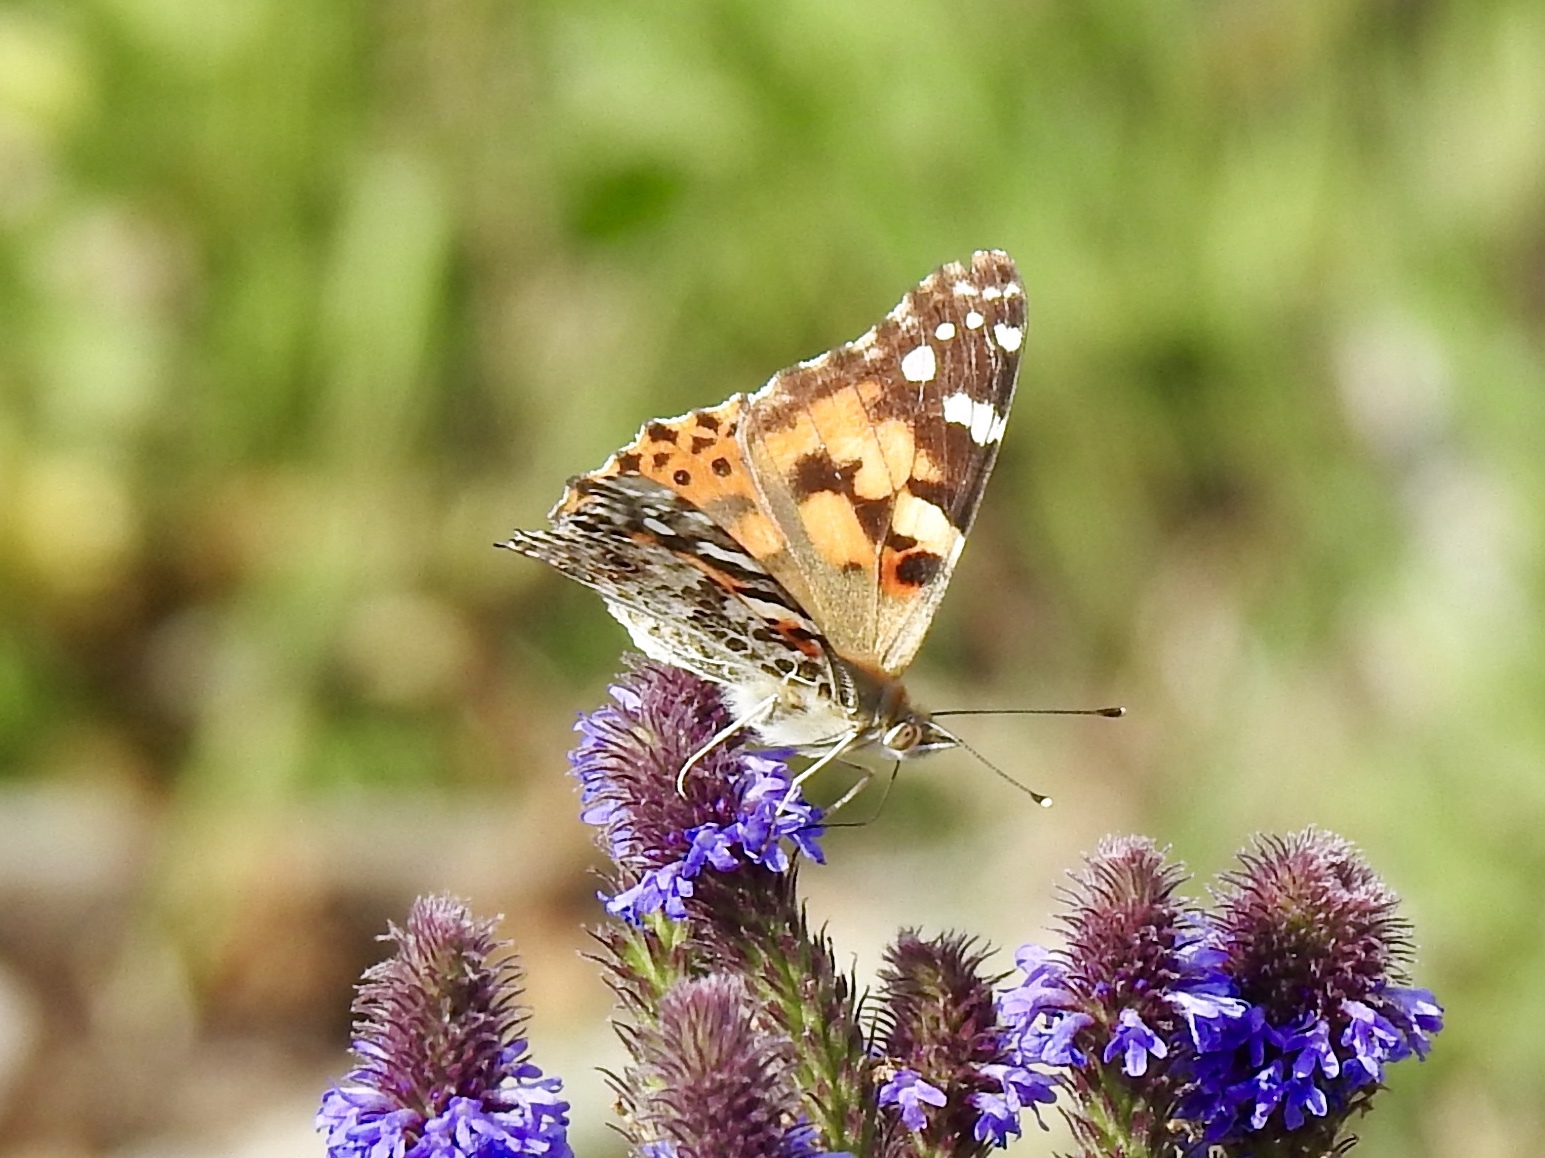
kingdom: Animalia
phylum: Arthropoda
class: Insecta
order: Lepidoptera
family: Nymphalidae
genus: Vanessa
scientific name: Vanessa cardui
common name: Painted lady
